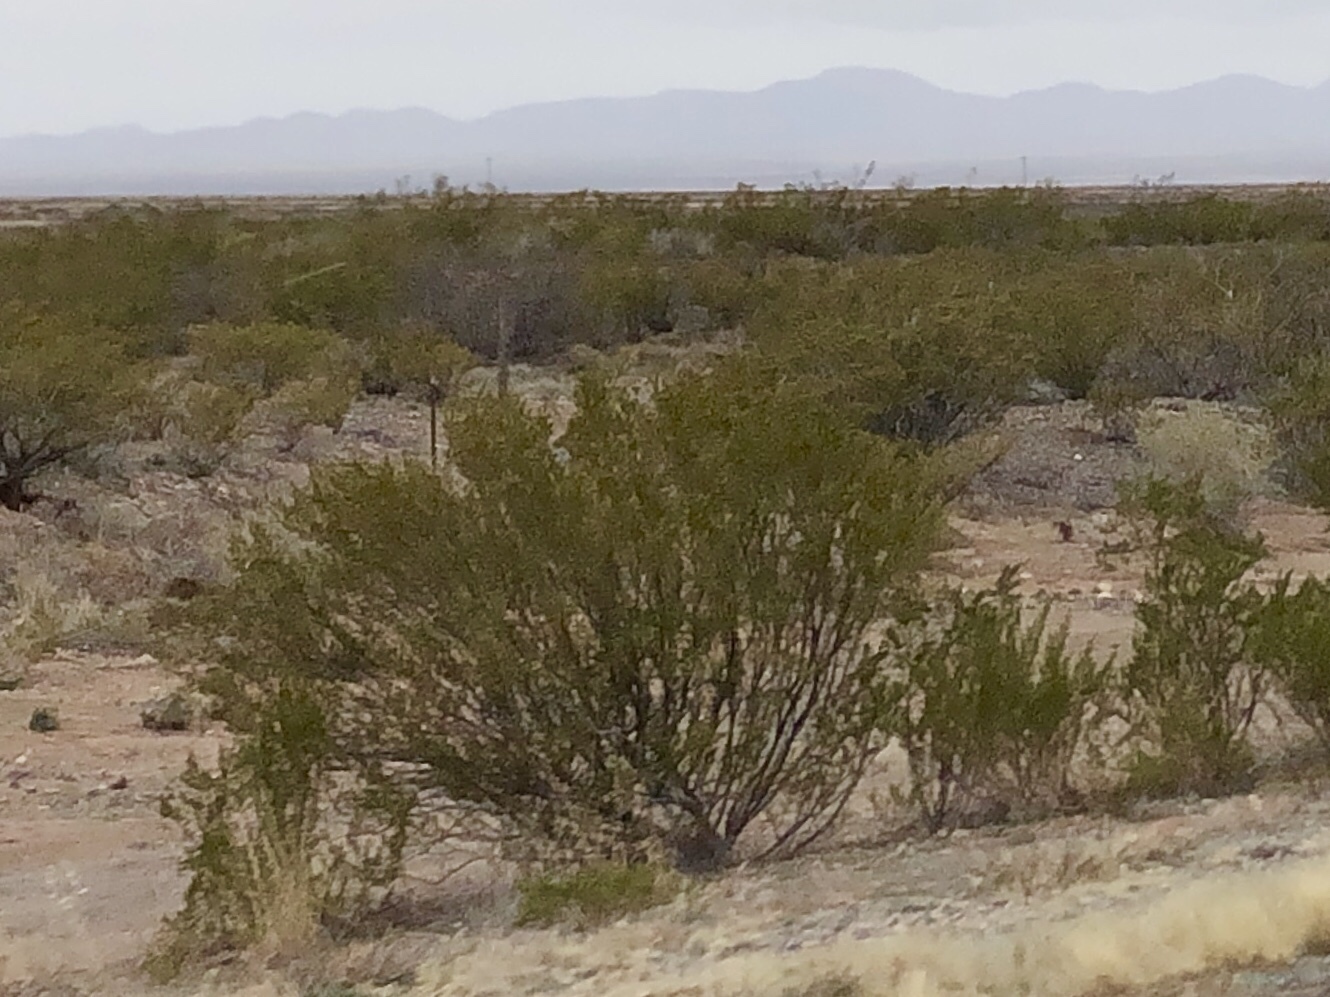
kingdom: Plantae
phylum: Tracheophyta
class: Magnoliopsida
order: Zygophyllales
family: Zygophyllaceae
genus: Larrea
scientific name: Larrea tridentata
